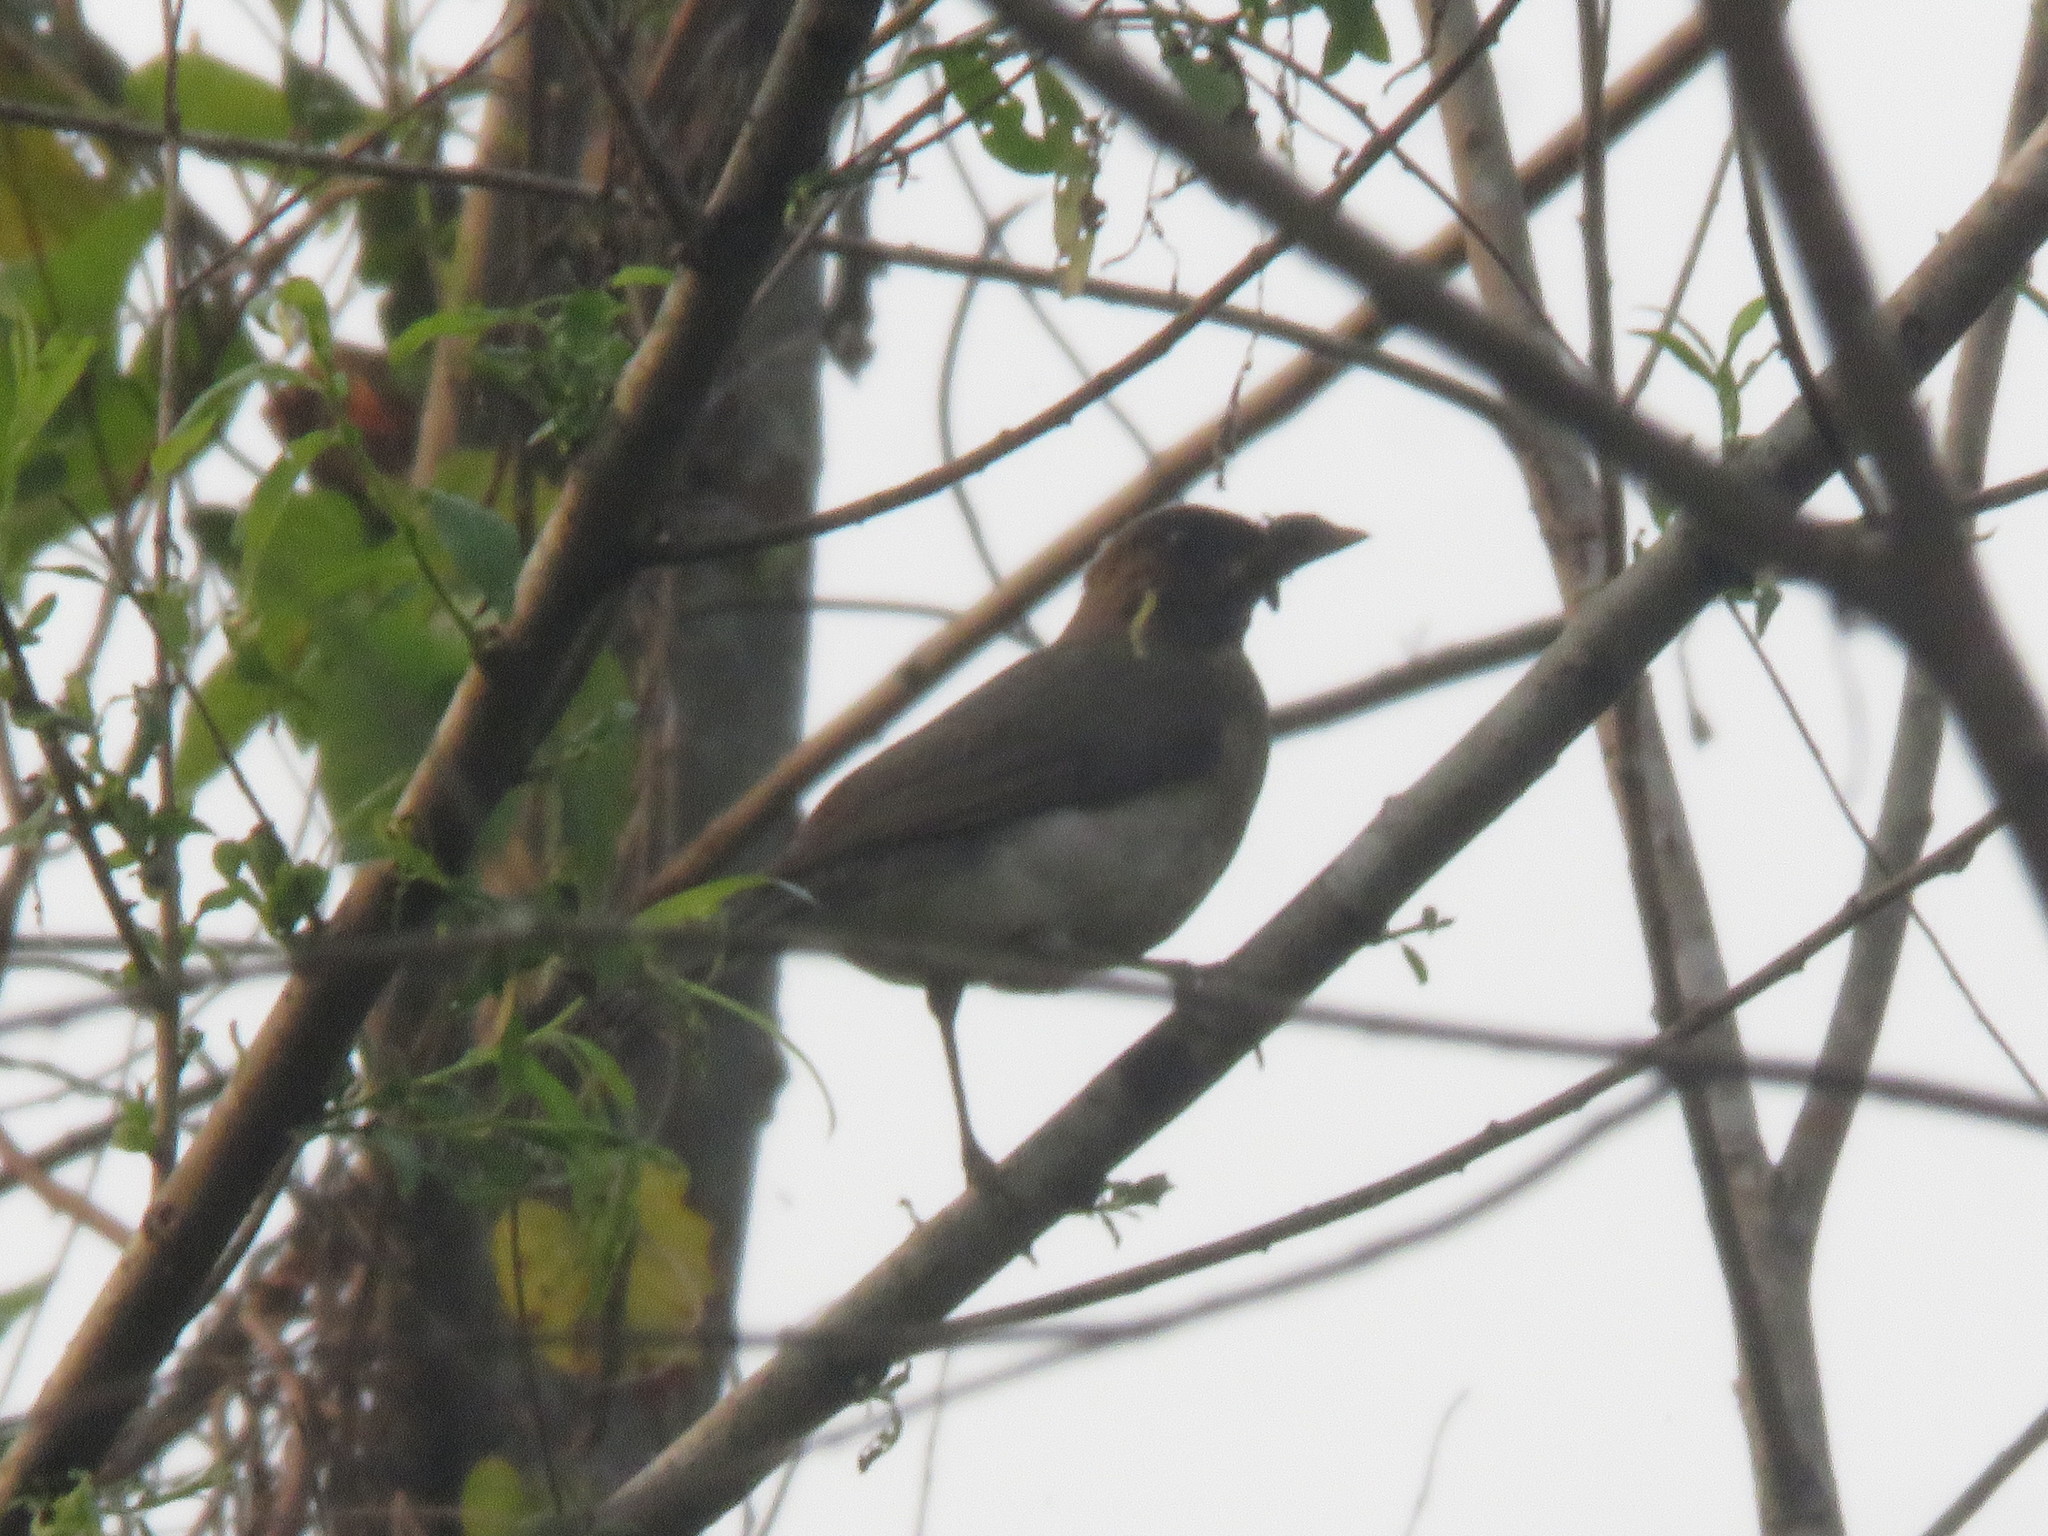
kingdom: Animalia
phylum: Chordata
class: Aves
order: Passeriformes
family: Turdidae
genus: Turdus
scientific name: Turdus ignobilis
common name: Black-billed thrush
